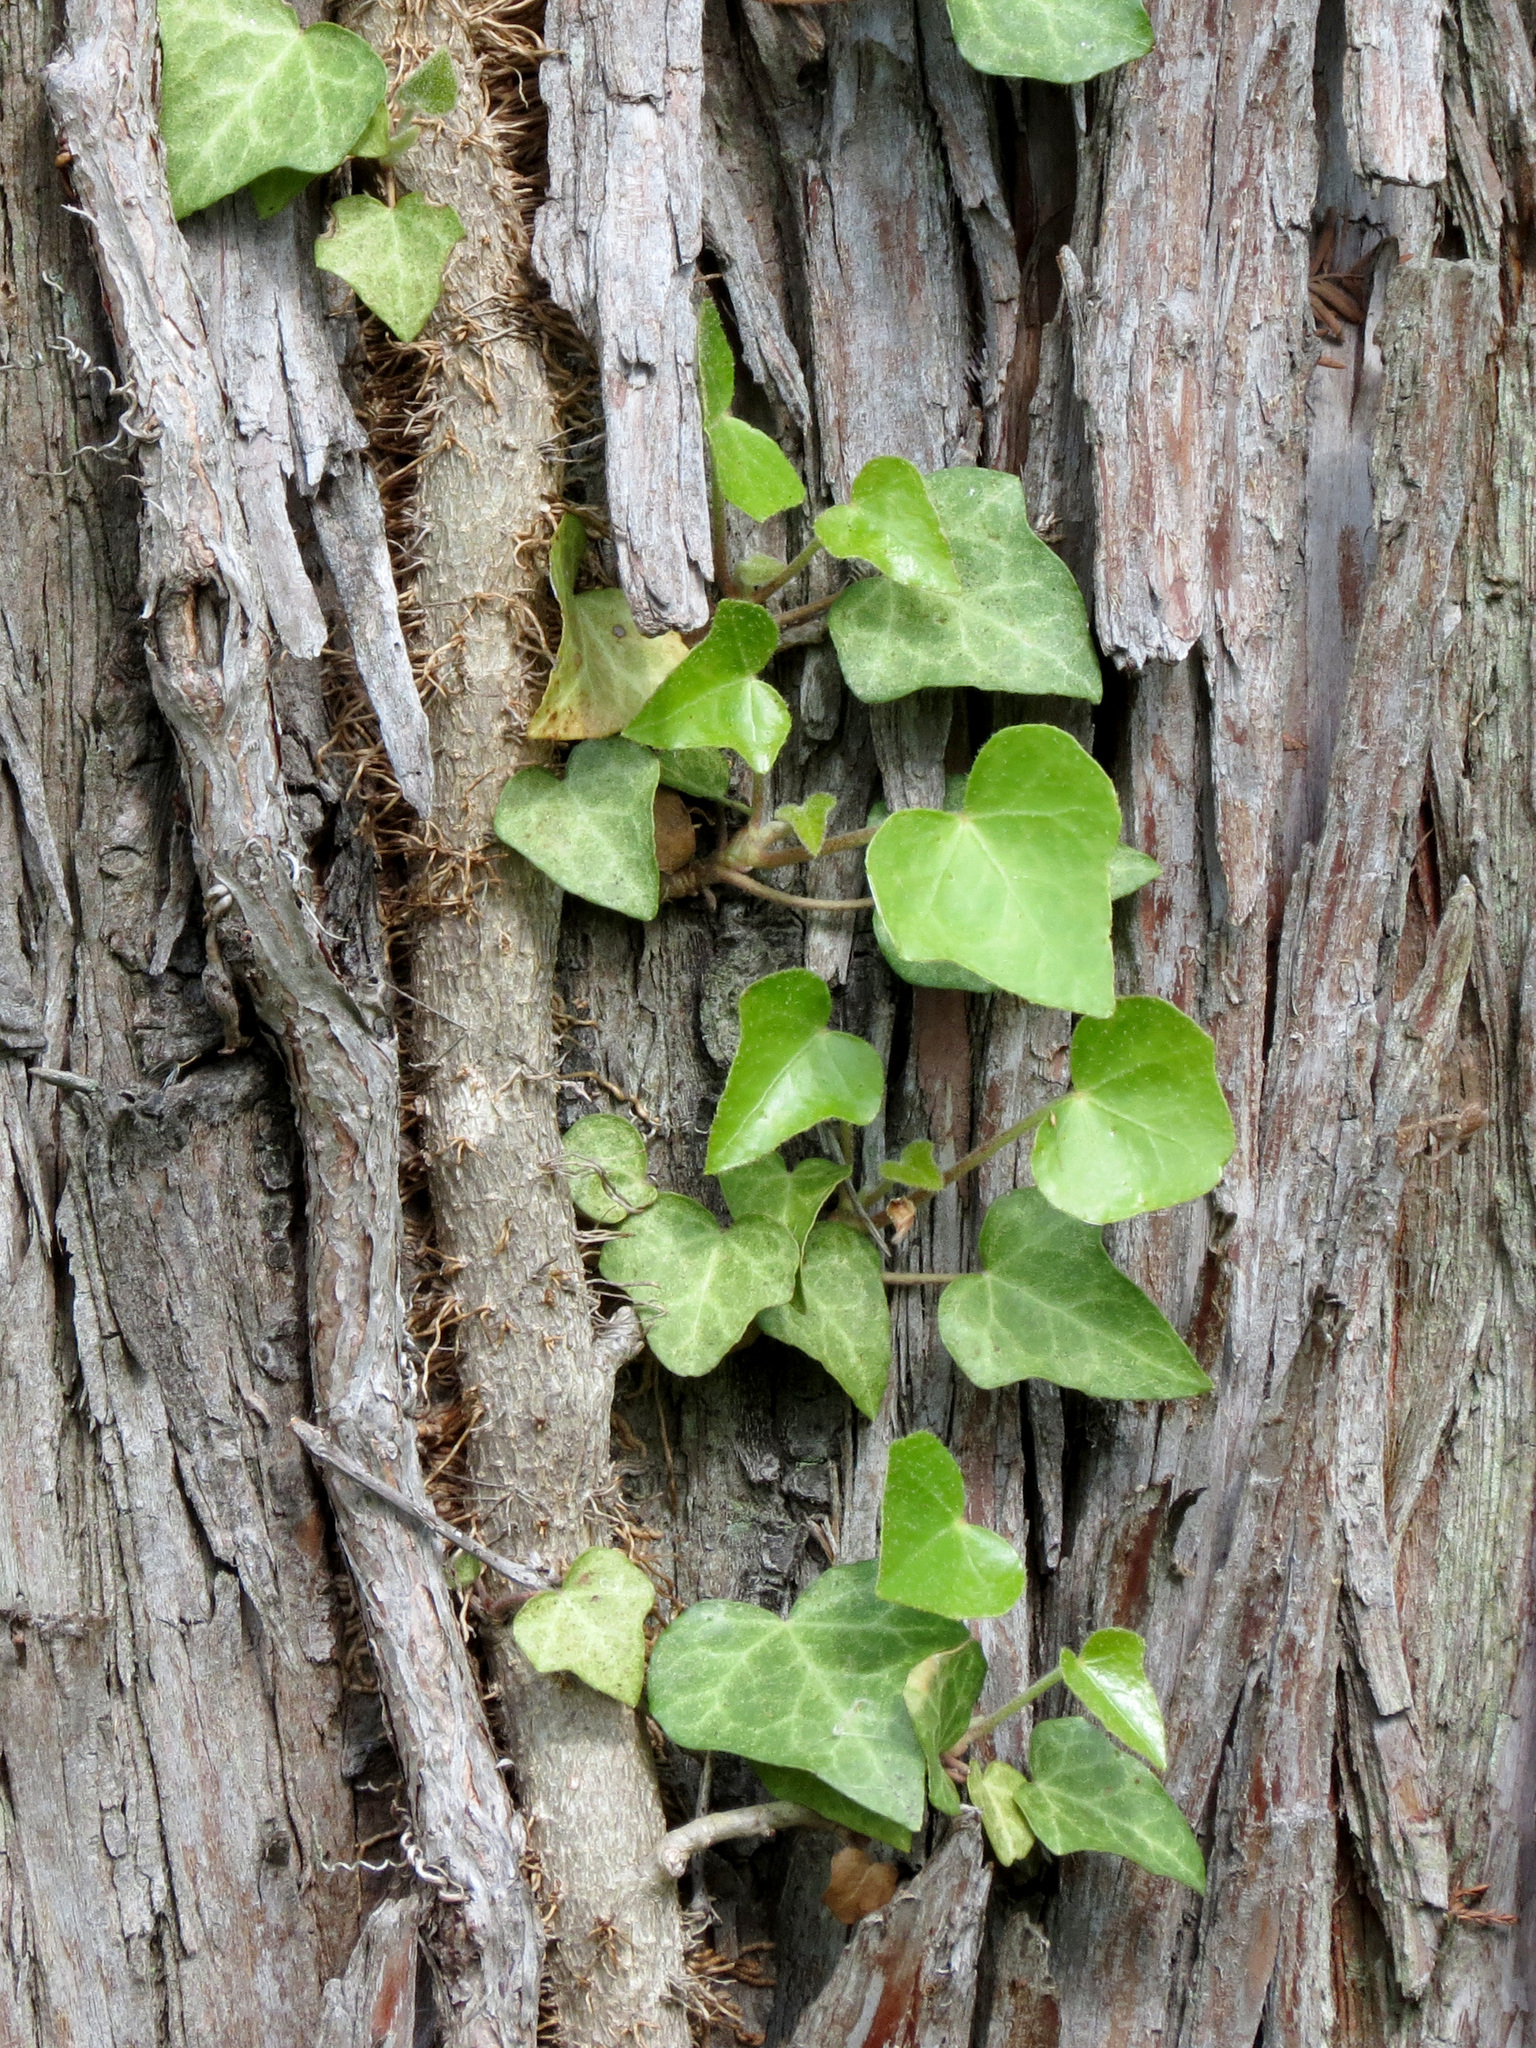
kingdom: Plantae
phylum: Tracheophyta
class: Magnoliopsida
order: Apiales
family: Araliaceae
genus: Hedera
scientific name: Hedera helix
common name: Ivy
